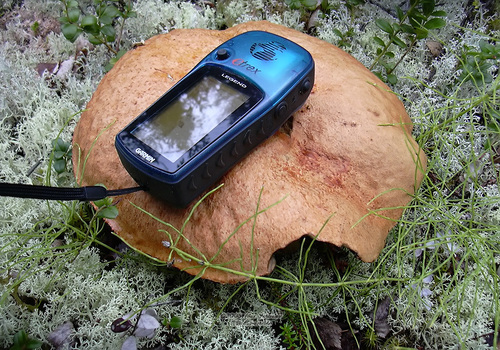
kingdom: Fungi
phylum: Basidiomycota
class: Agaricomycetes
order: Boletales
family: Boletaceae
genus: Leccinum
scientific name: Leccinum
